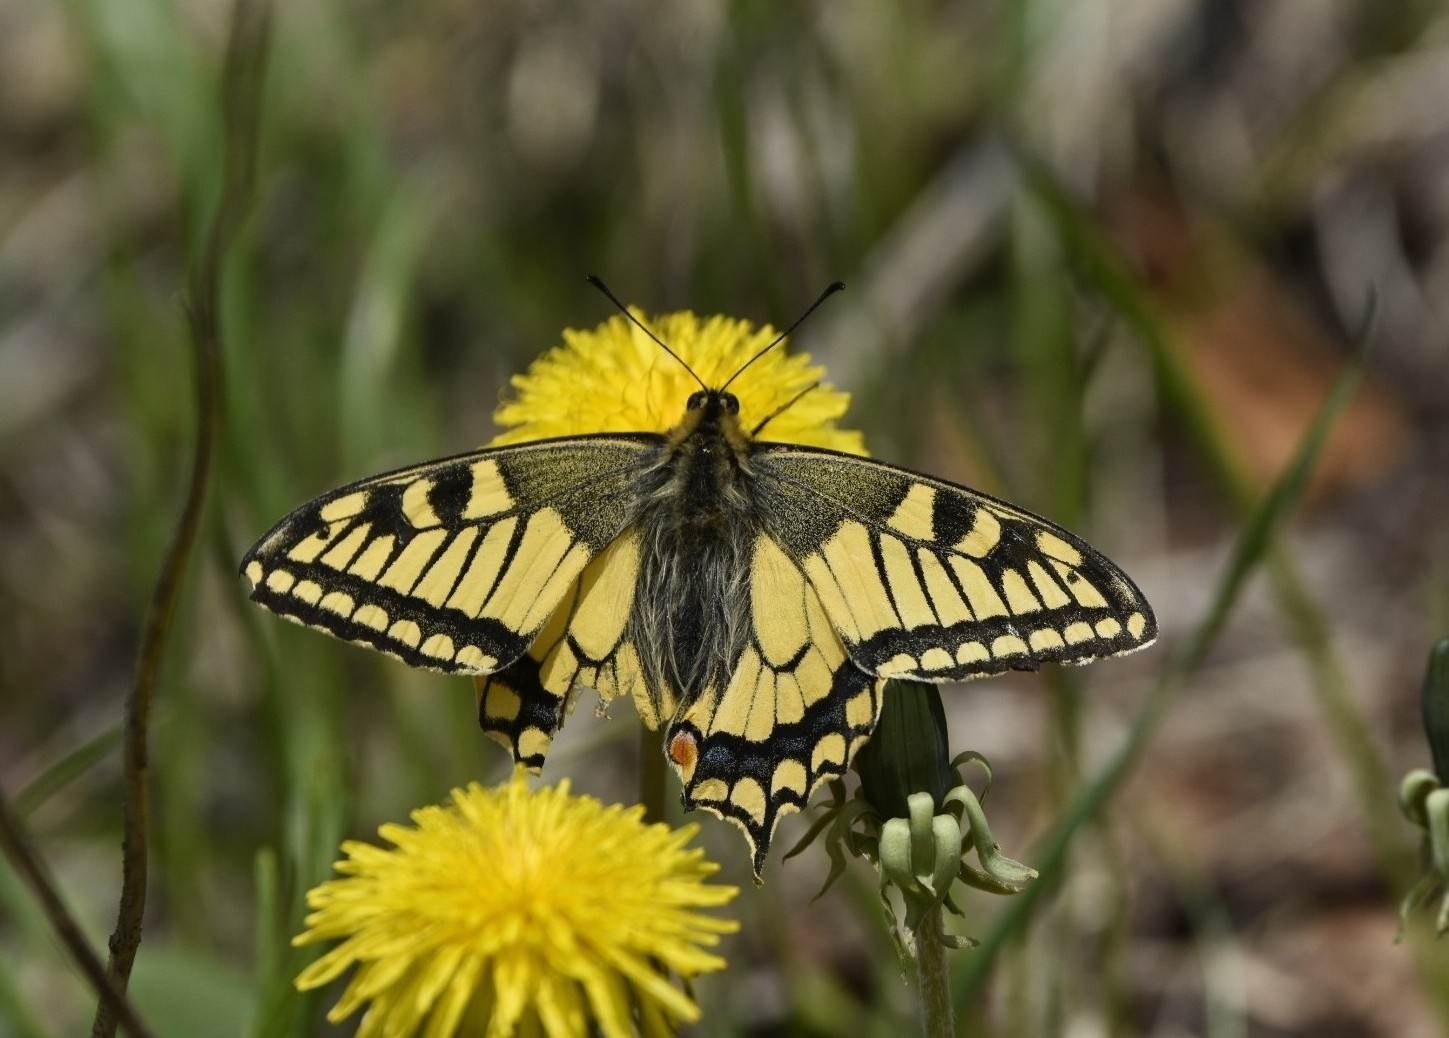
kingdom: Animalia
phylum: Arthropoda
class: Insecta
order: Lepidoptera
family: Papilionidae
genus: Papilio
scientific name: Papilio machaon
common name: Swallowtail
